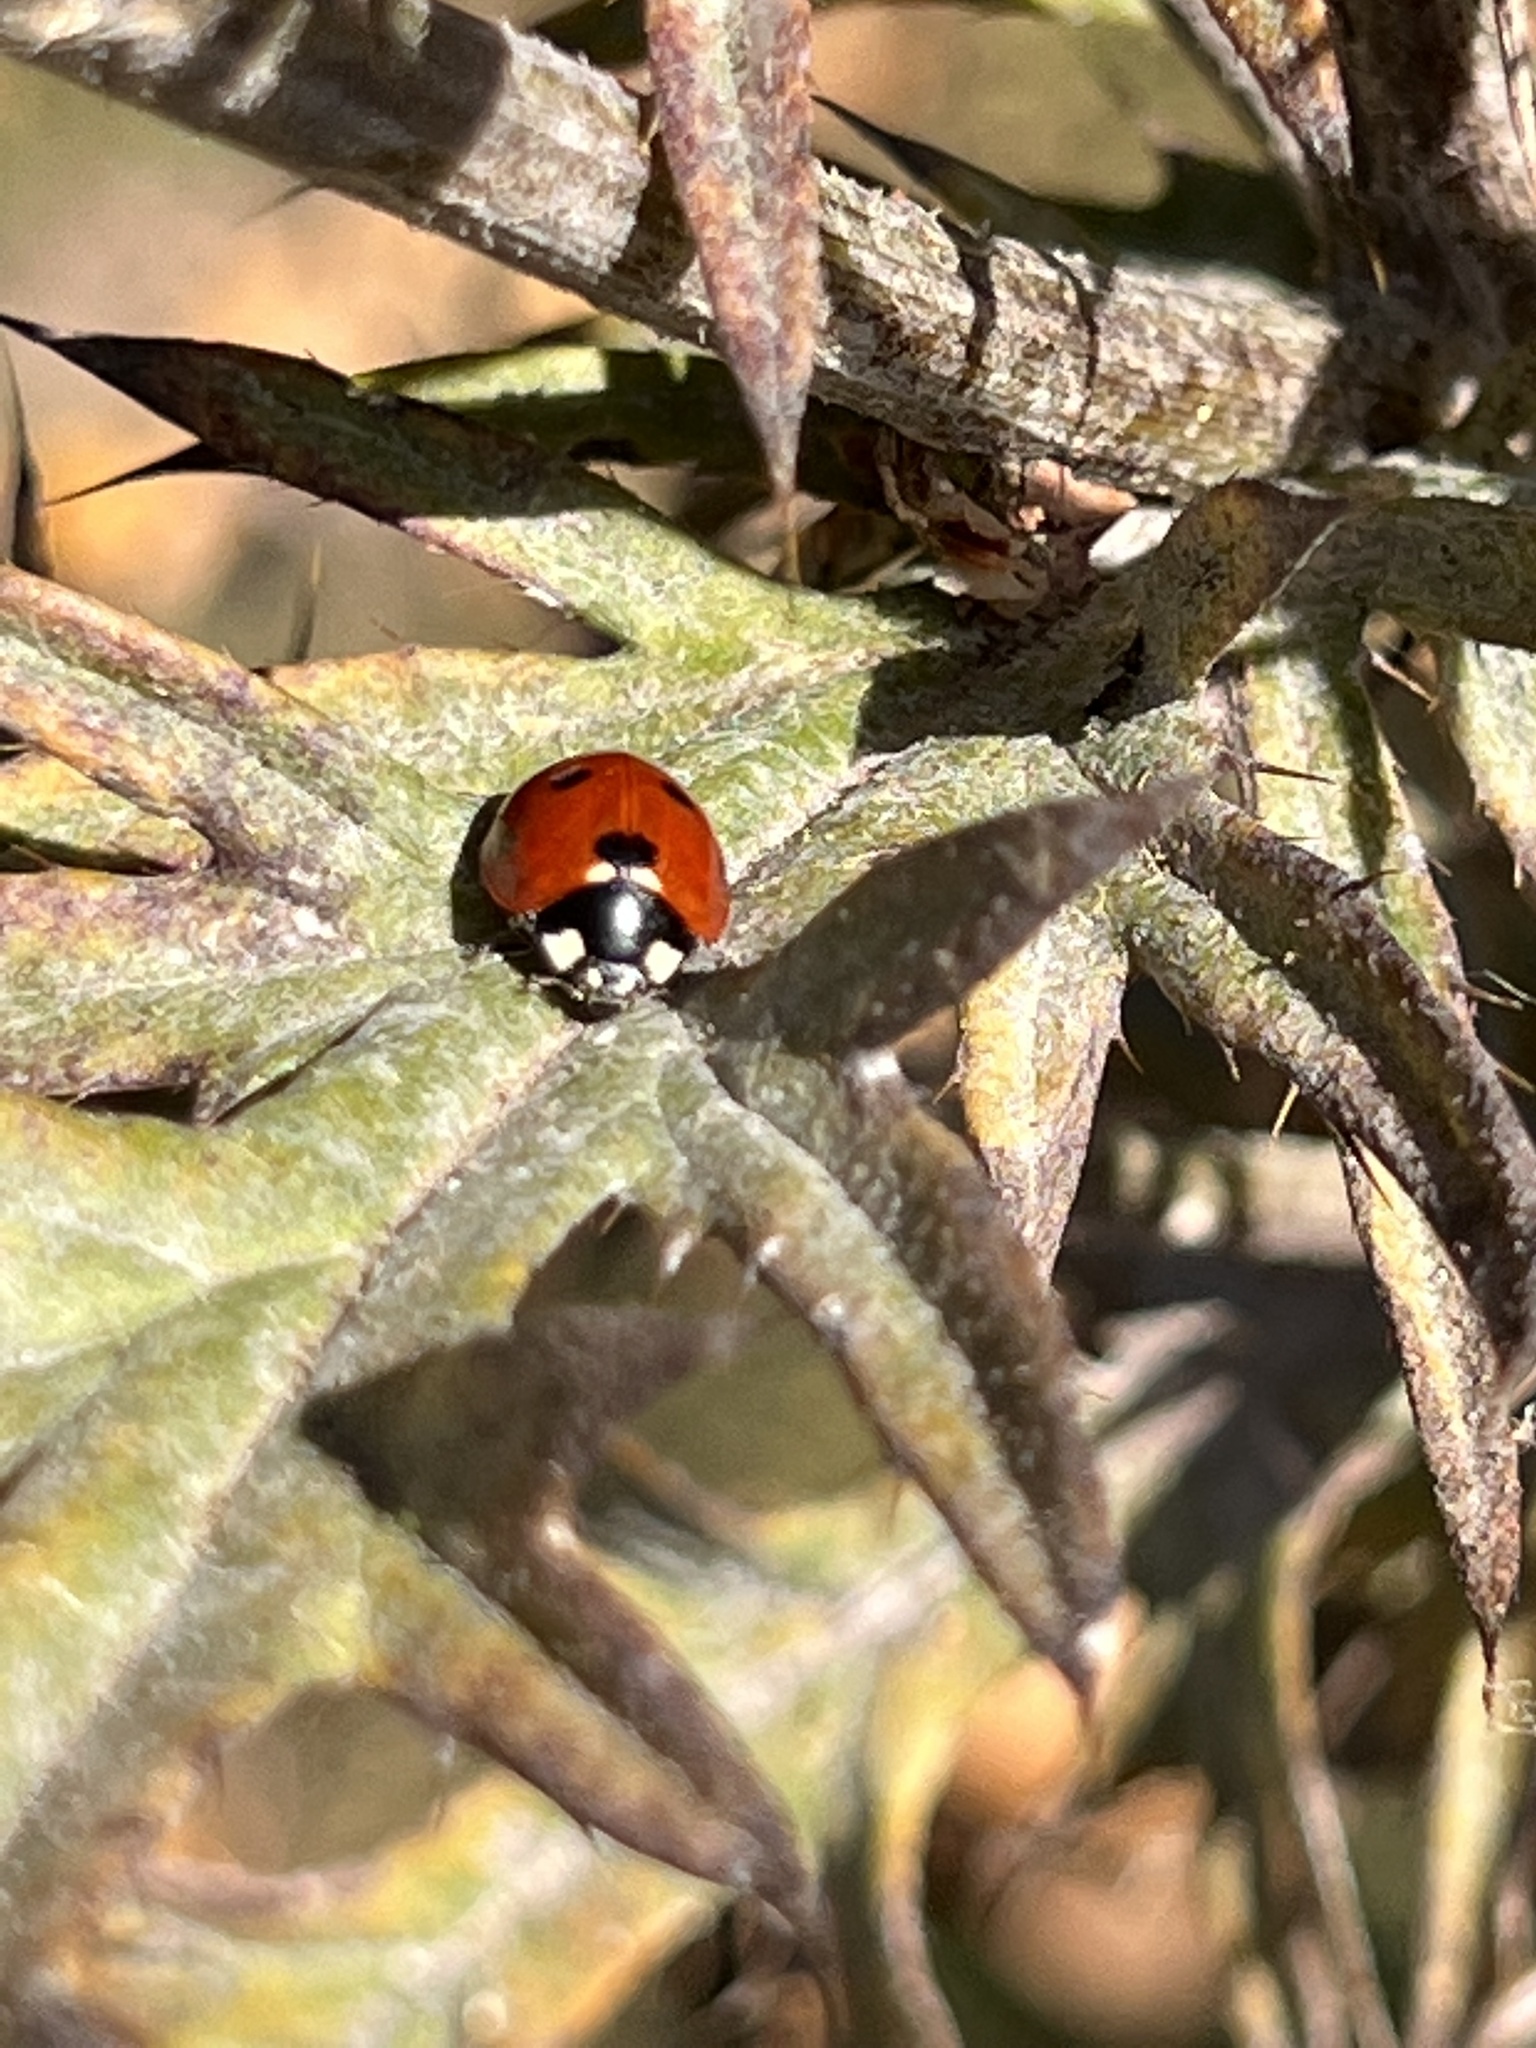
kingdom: Animalia
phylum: Arthropoda
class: Insecta
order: Coleoptera
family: Coccinellidae
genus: Coccinella
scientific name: Coccinella septempunctata
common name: Sevenspotted lady beetle
